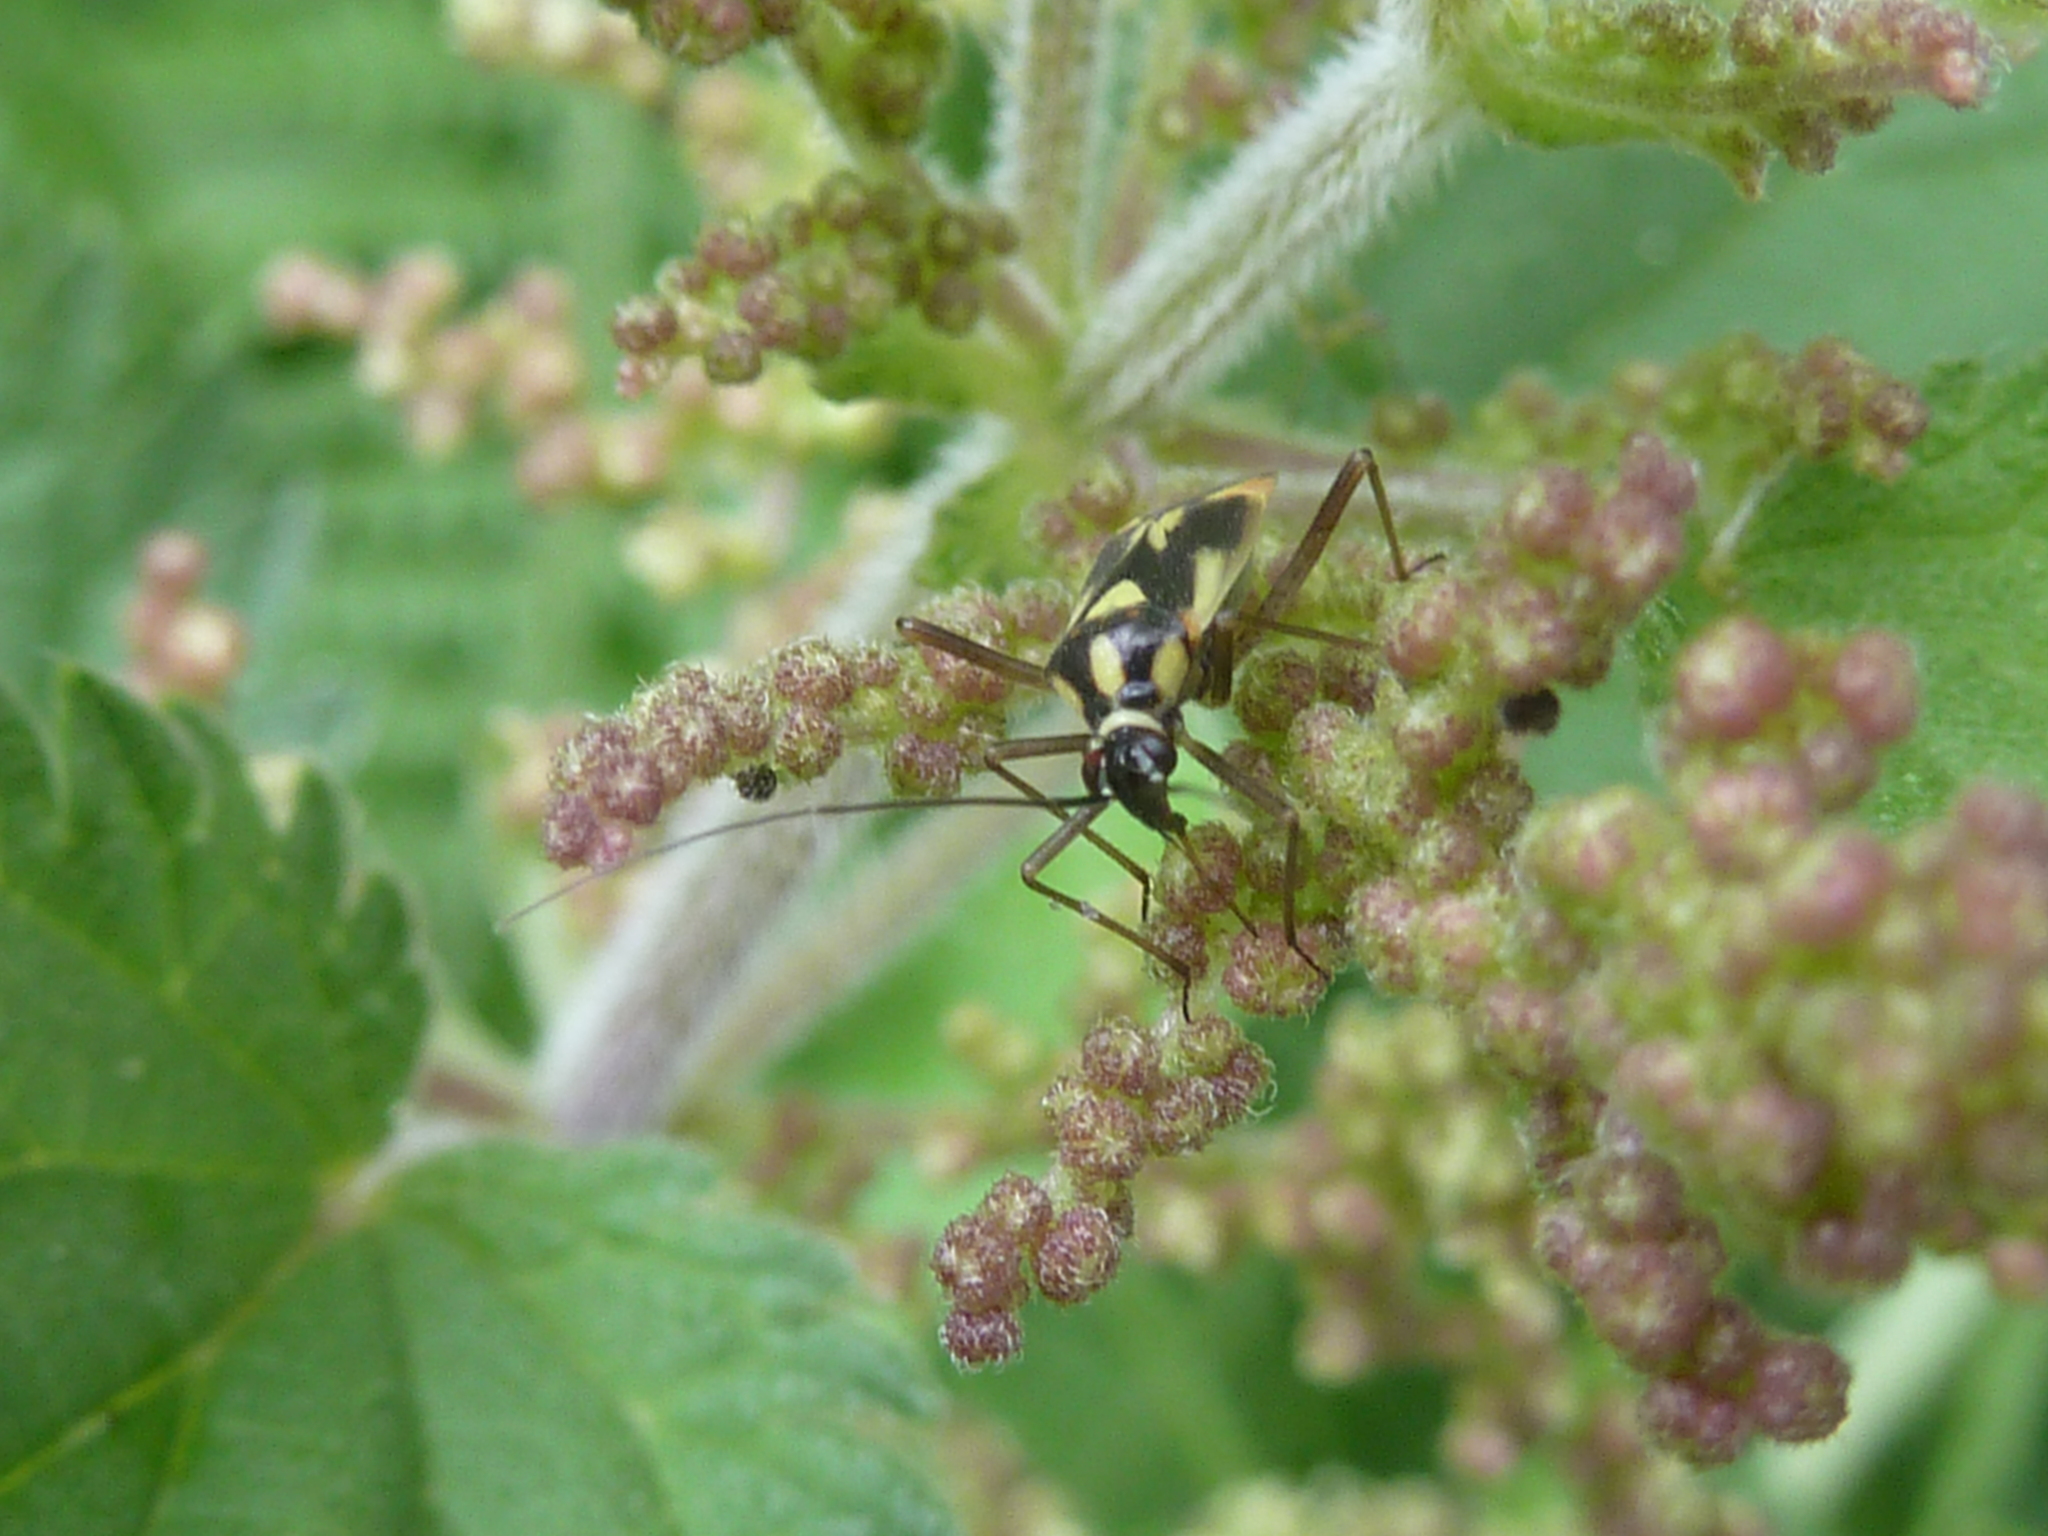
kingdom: Animalia
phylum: Arthropoda
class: Insecta
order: Hemiptera
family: Miridae
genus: Grypocoris
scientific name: Grypocoris stysi
